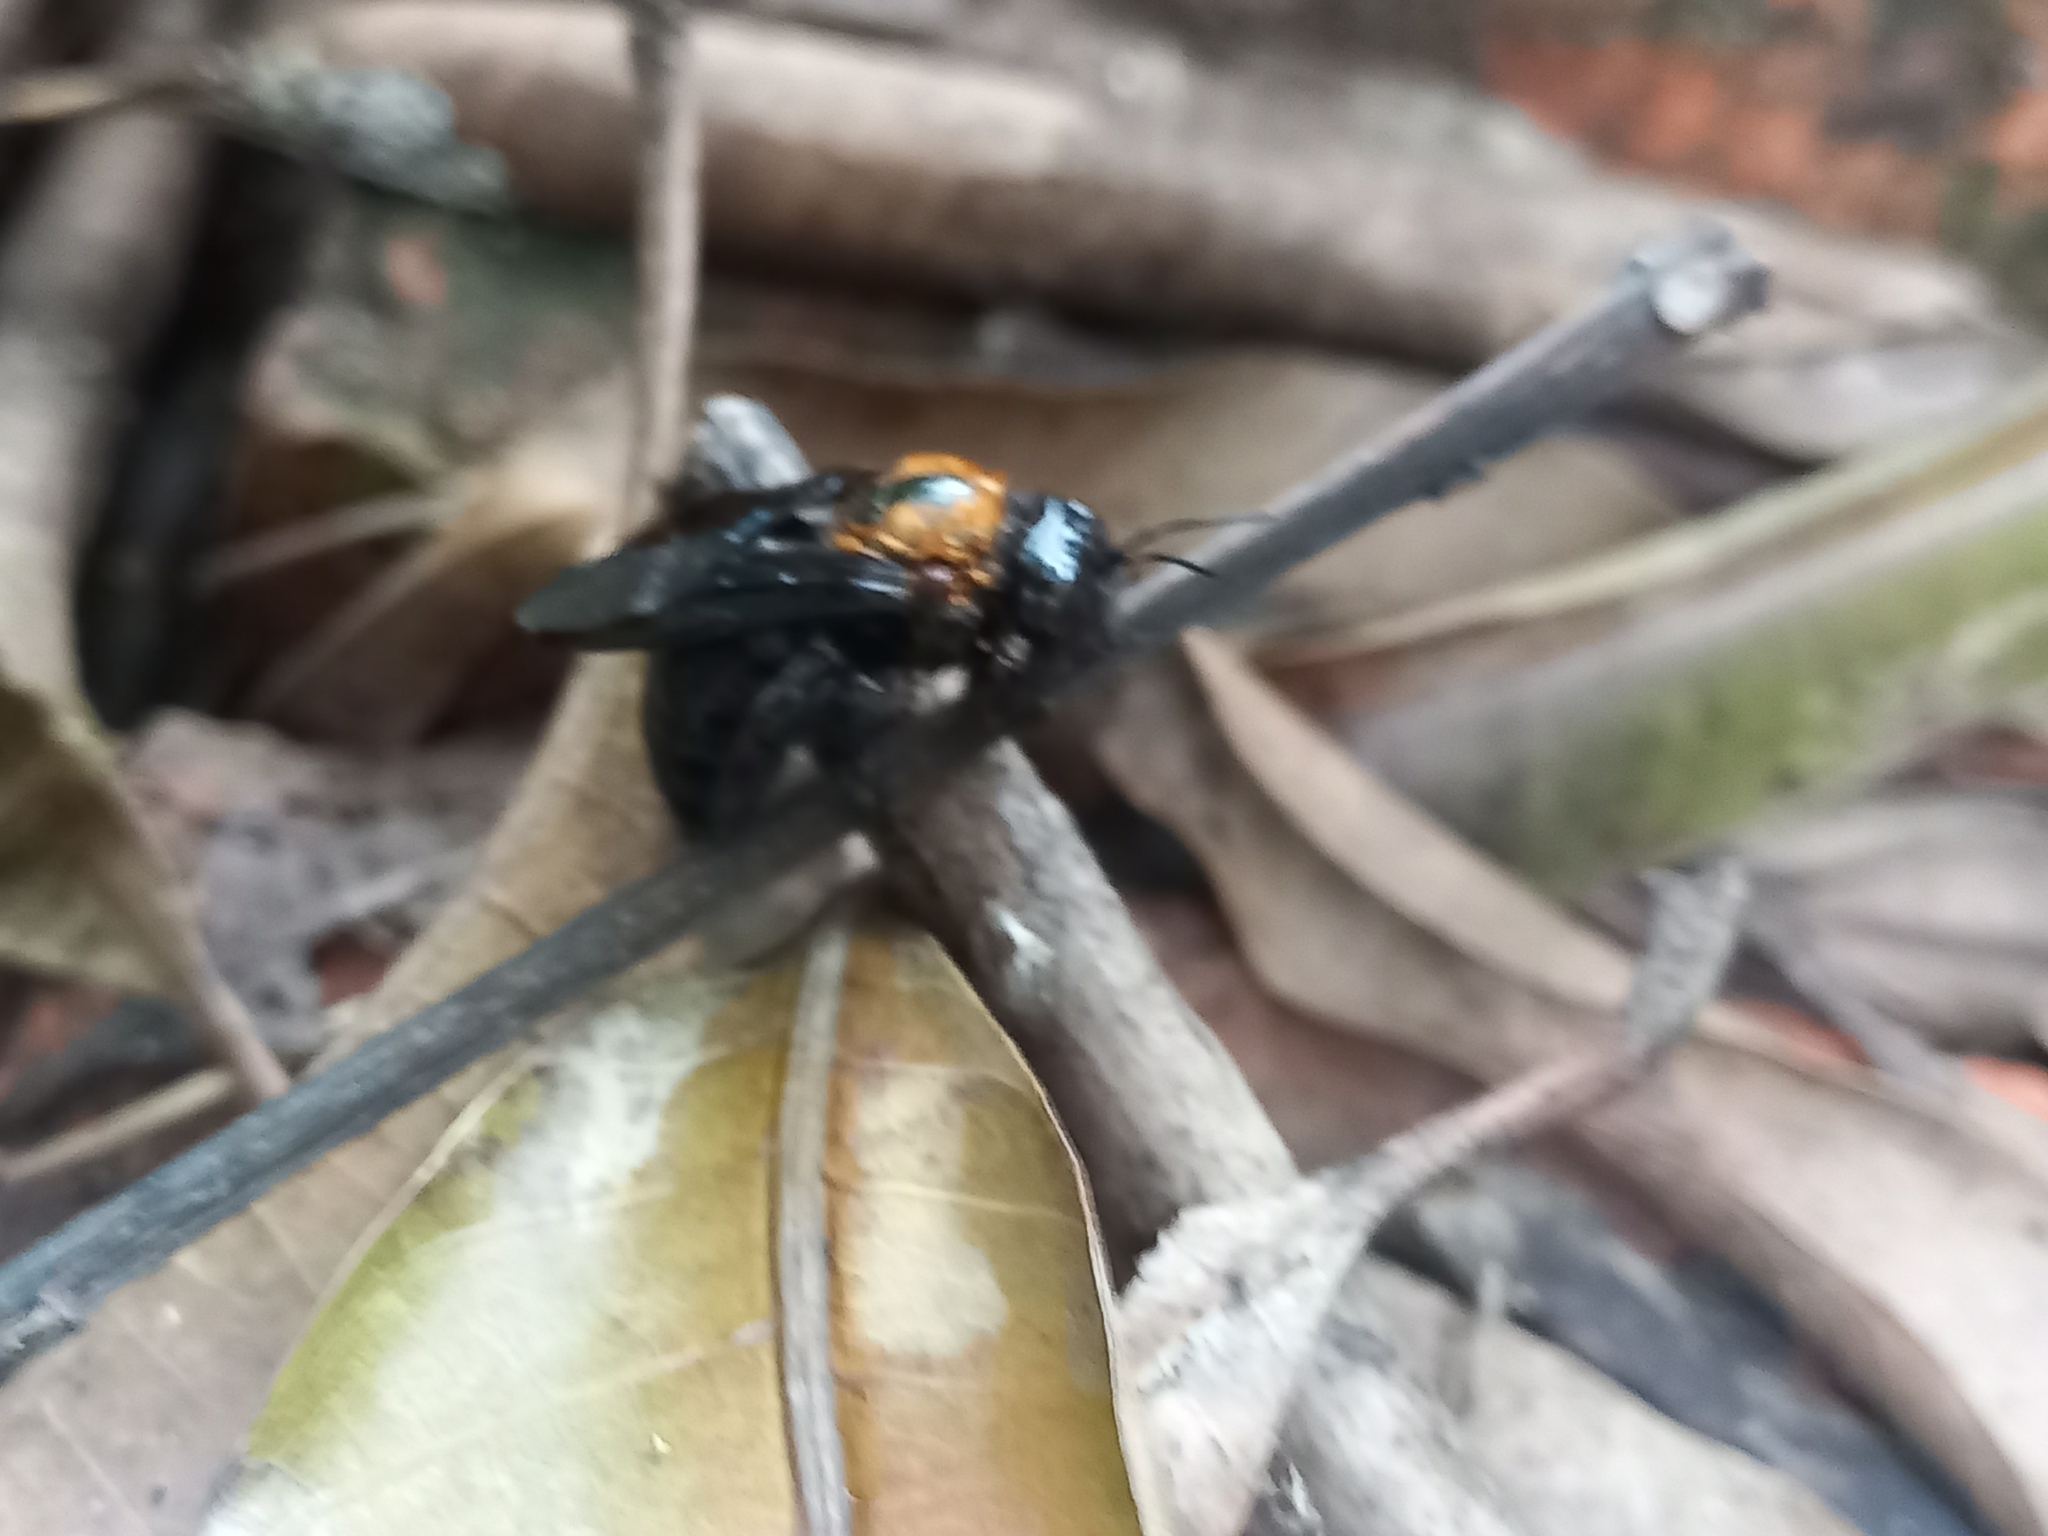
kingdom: Animalia
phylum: Arthropoda
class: Insecta
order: Hymenoptera
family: Apidae
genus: Xylocopa
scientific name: Xylocopa rufidorsum
